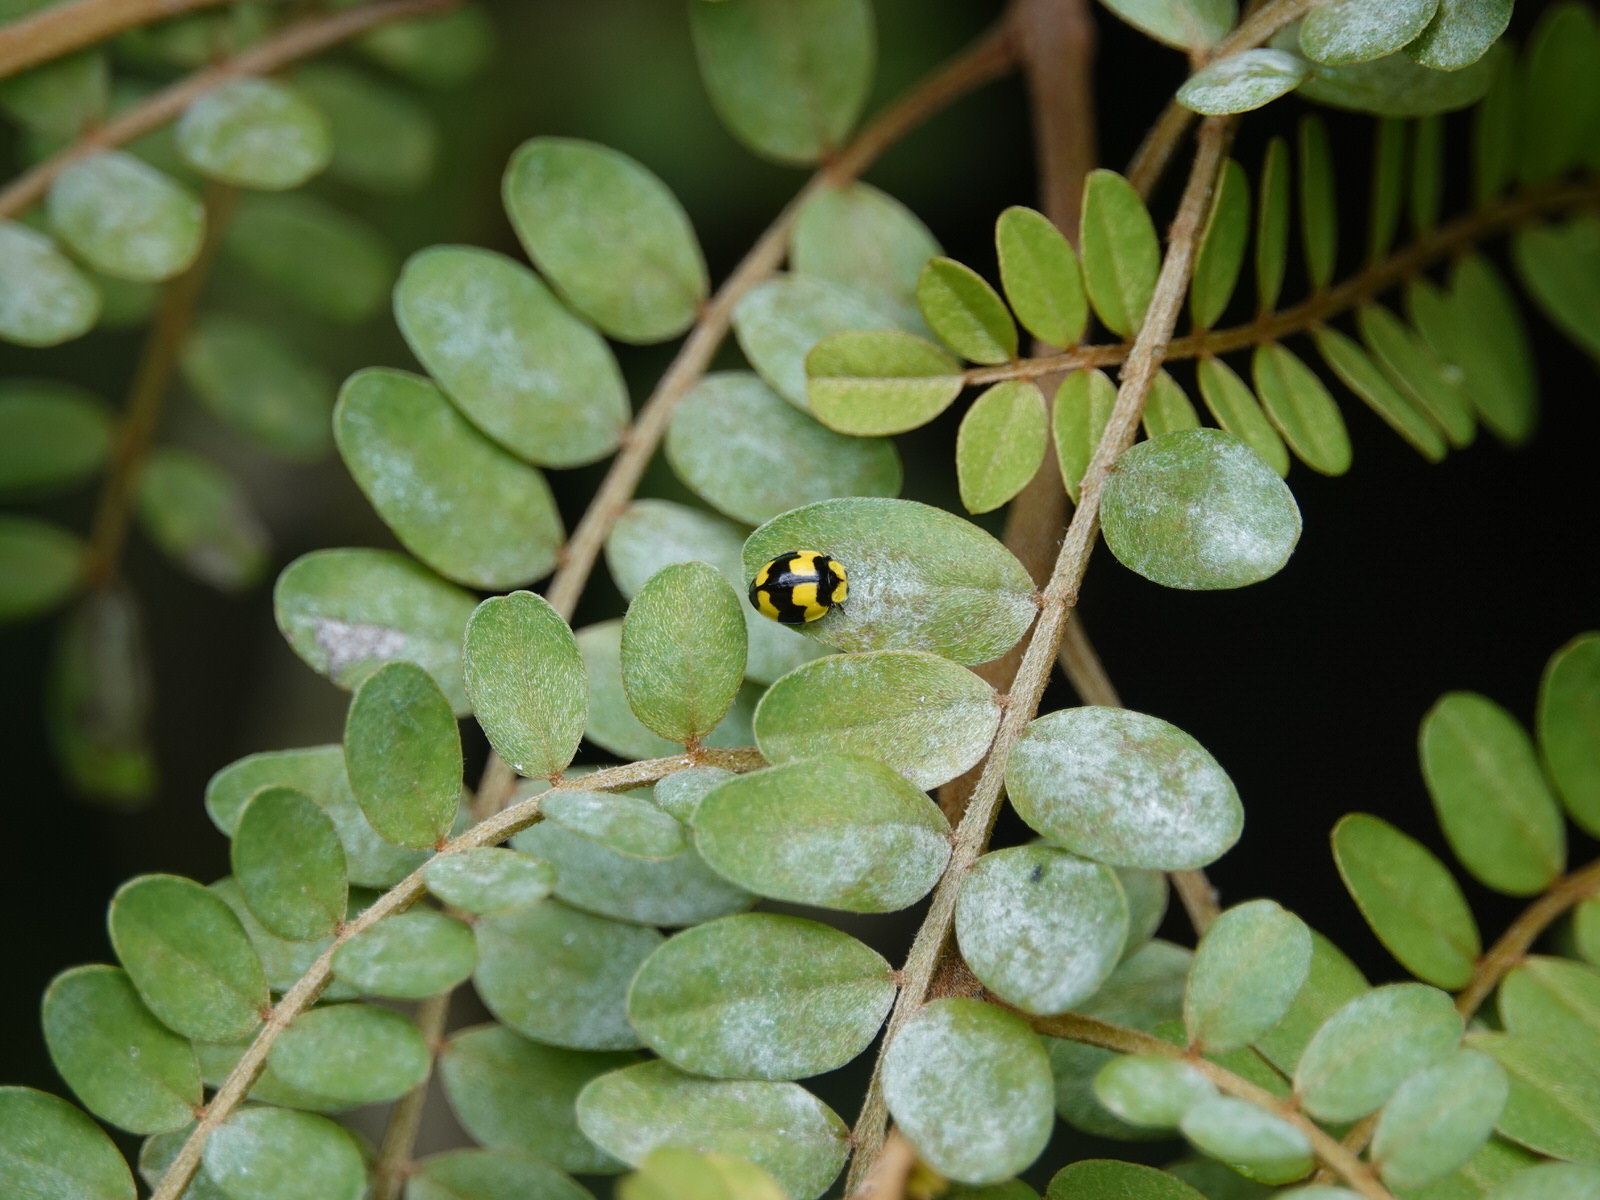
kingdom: Animalia
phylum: Arthropoda
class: Insecta
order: Coleoptera
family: Coccinellidae
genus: Illeis
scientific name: Illeis galbula
